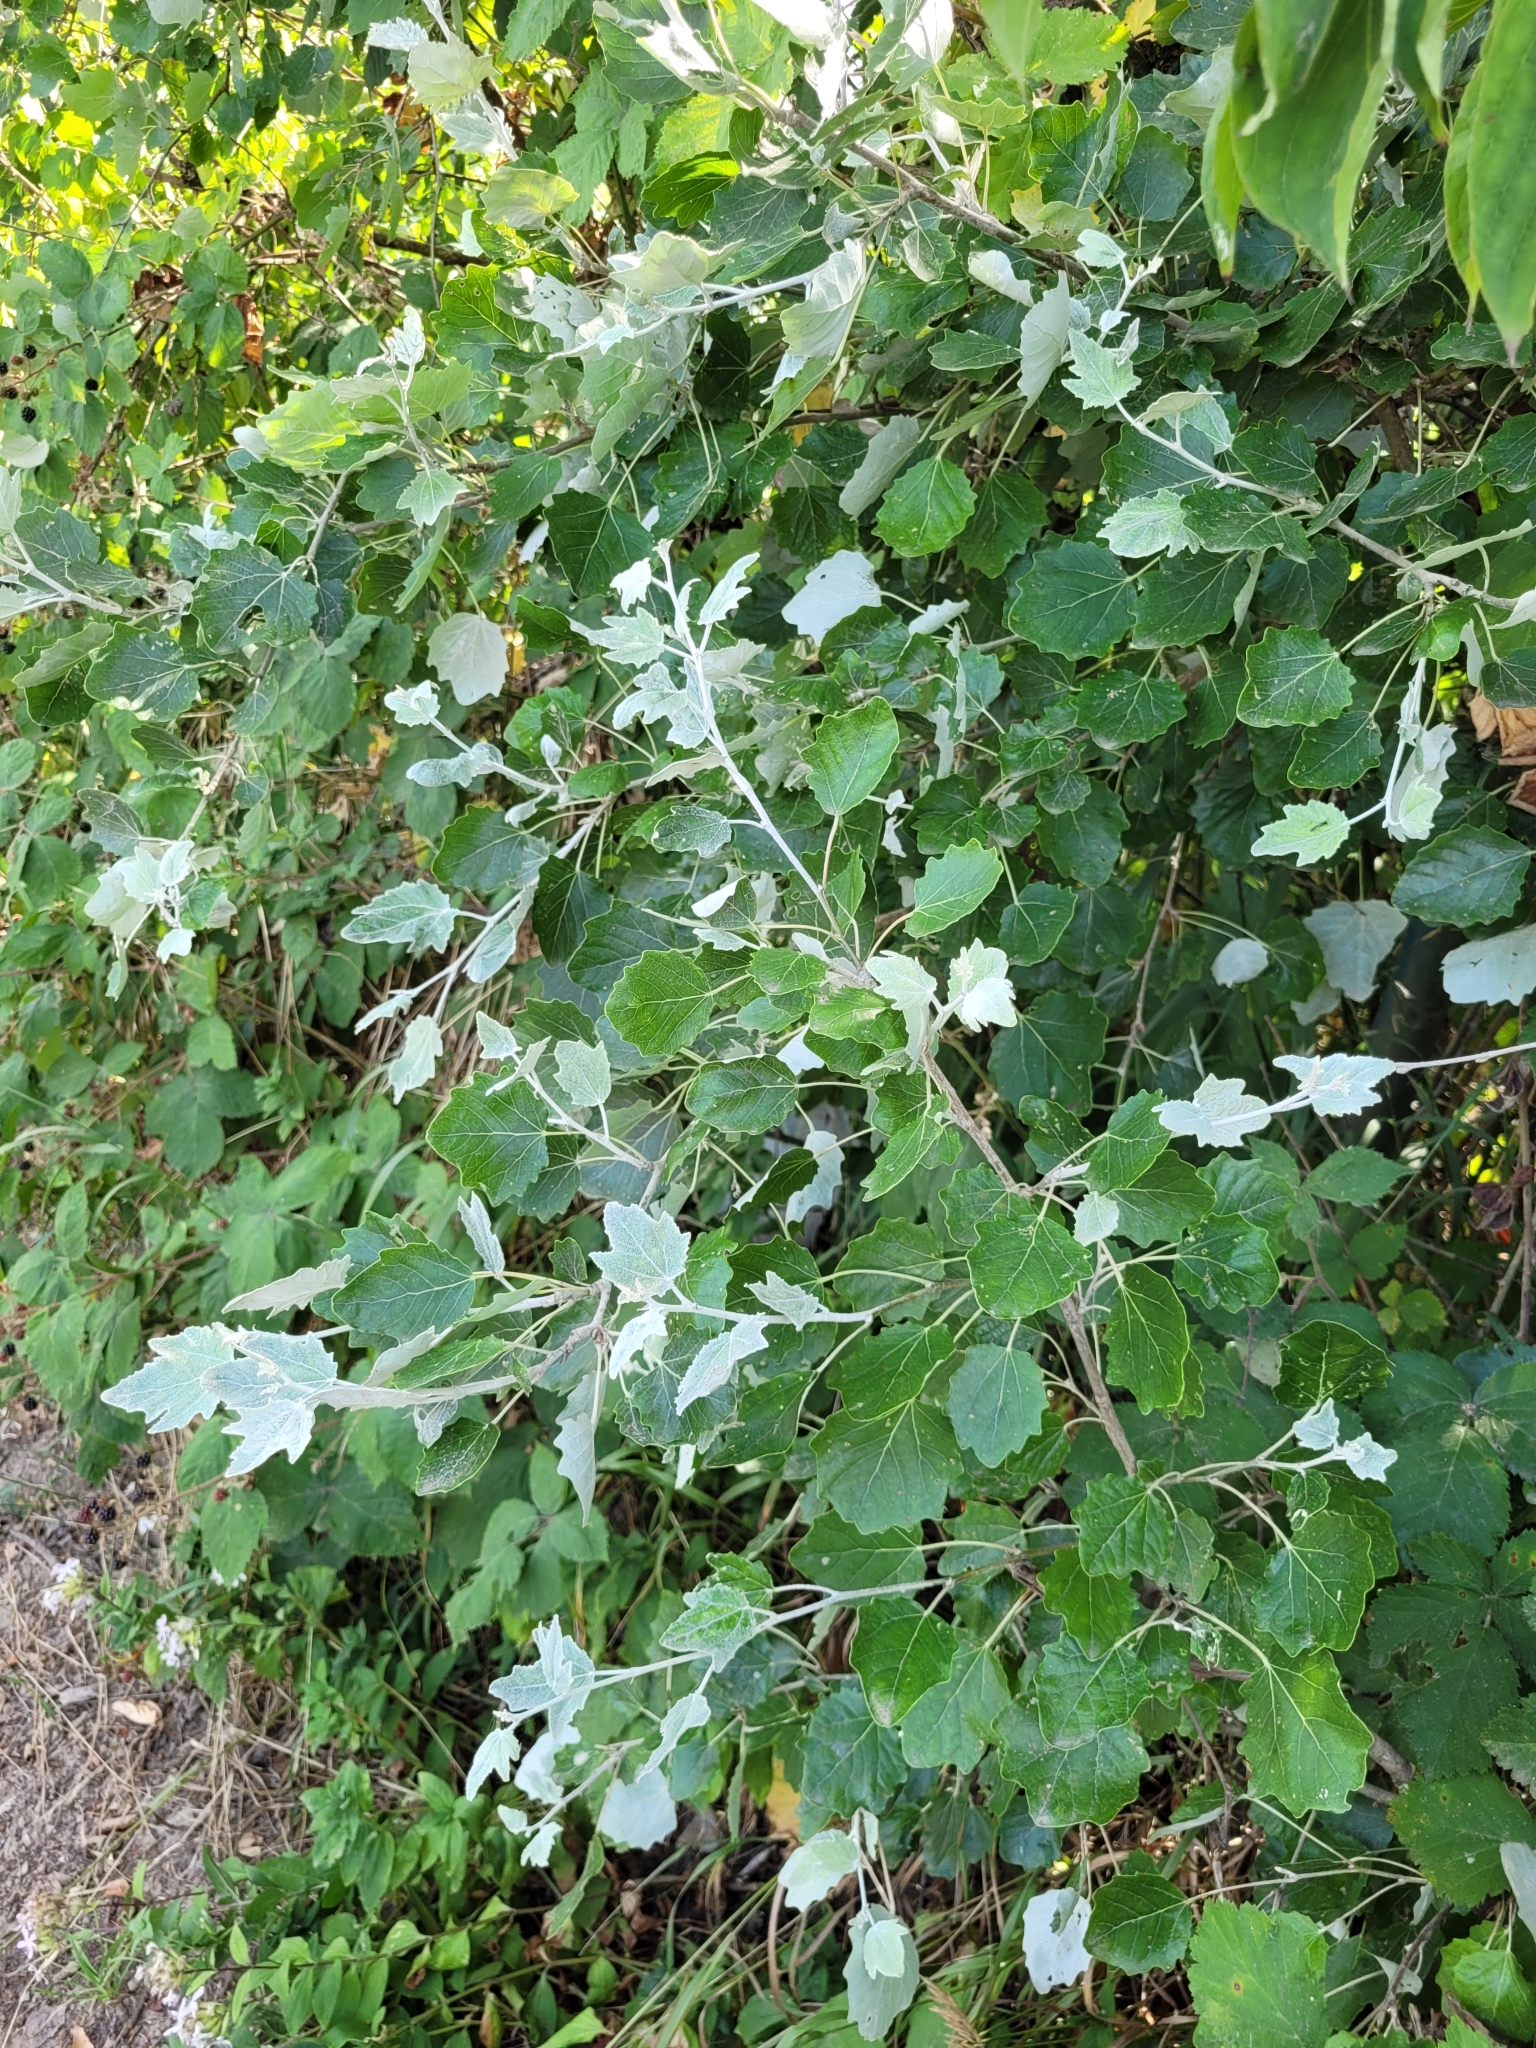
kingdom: Plantae
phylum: Tracheophyta
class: Magnoliopsida
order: Malpighiales
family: Salicaceae
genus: Populus
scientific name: Populus alba
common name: White poplar
